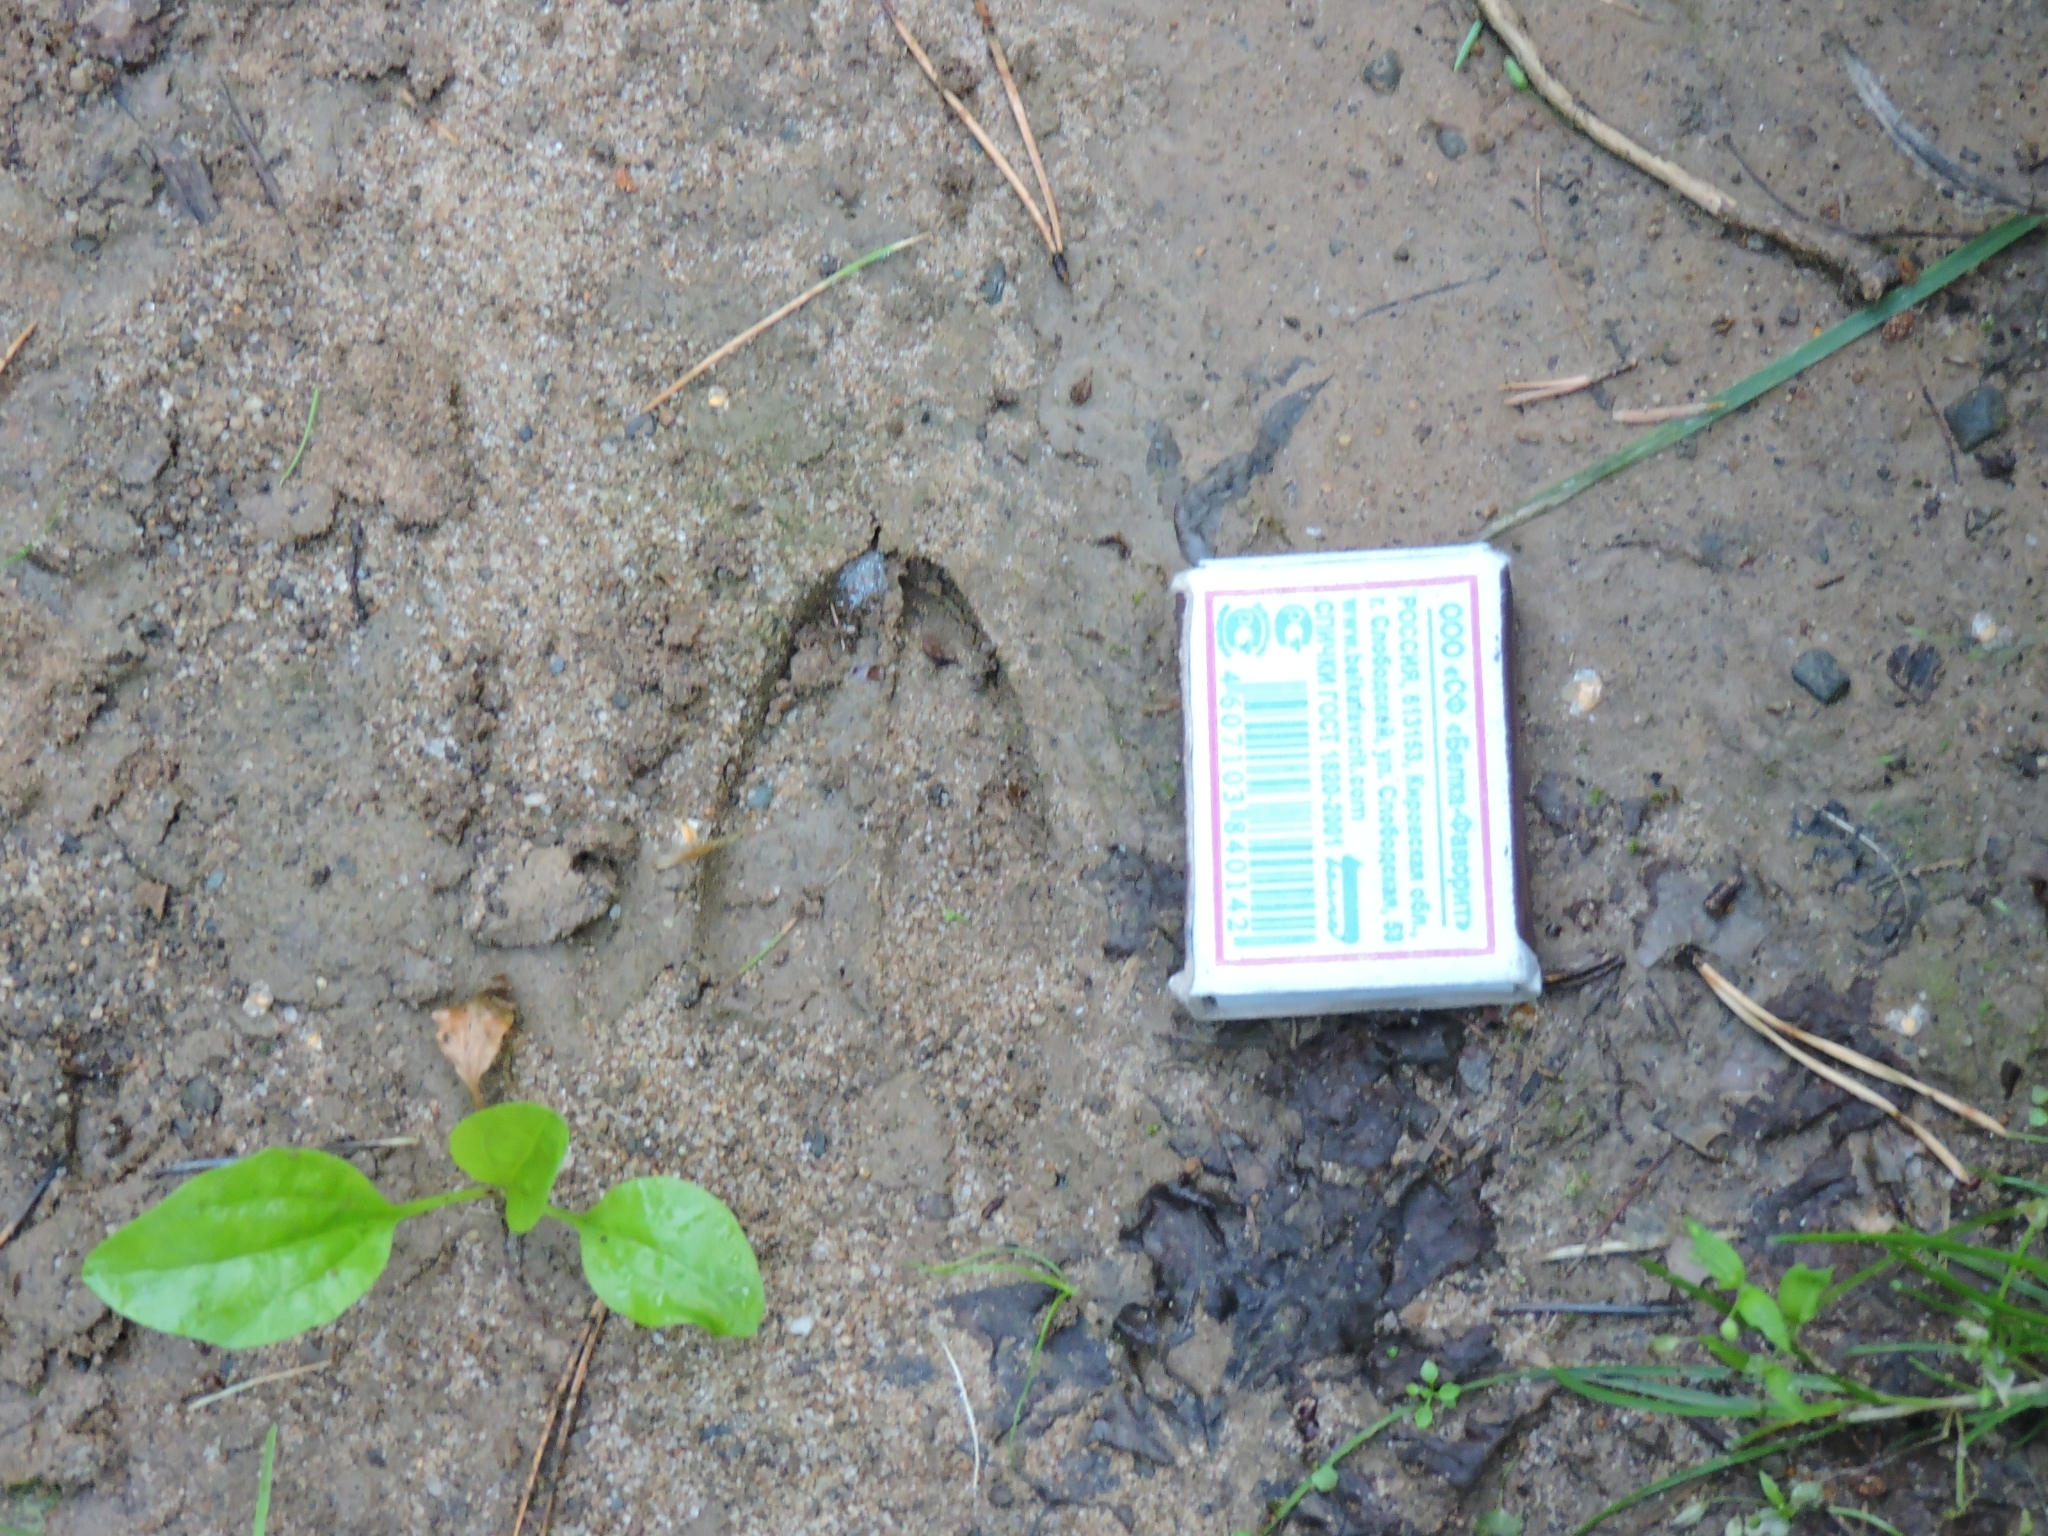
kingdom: Animalia
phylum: Chordata
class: Mammalia
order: Artiodactyla
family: Cervidae
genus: Capreolus
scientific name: Capreolus pygargus
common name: Siberian roe
